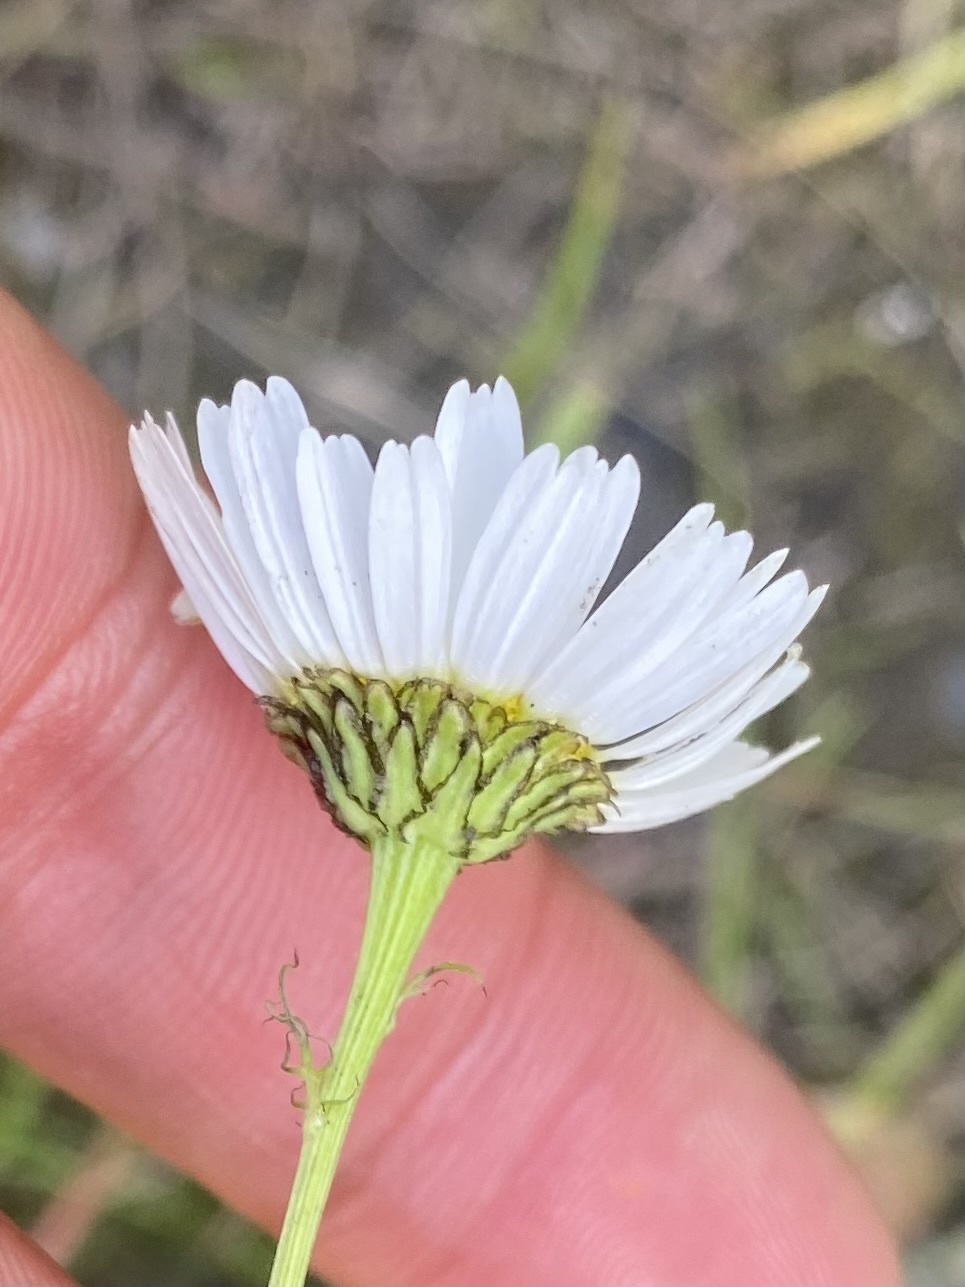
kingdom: Plantae
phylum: Tracheophyta
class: Magnoliopsida
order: Asterales
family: Asteraceae
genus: Tripleurospermum
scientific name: Tripleurospermum inodorum
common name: Scentless mayweed
